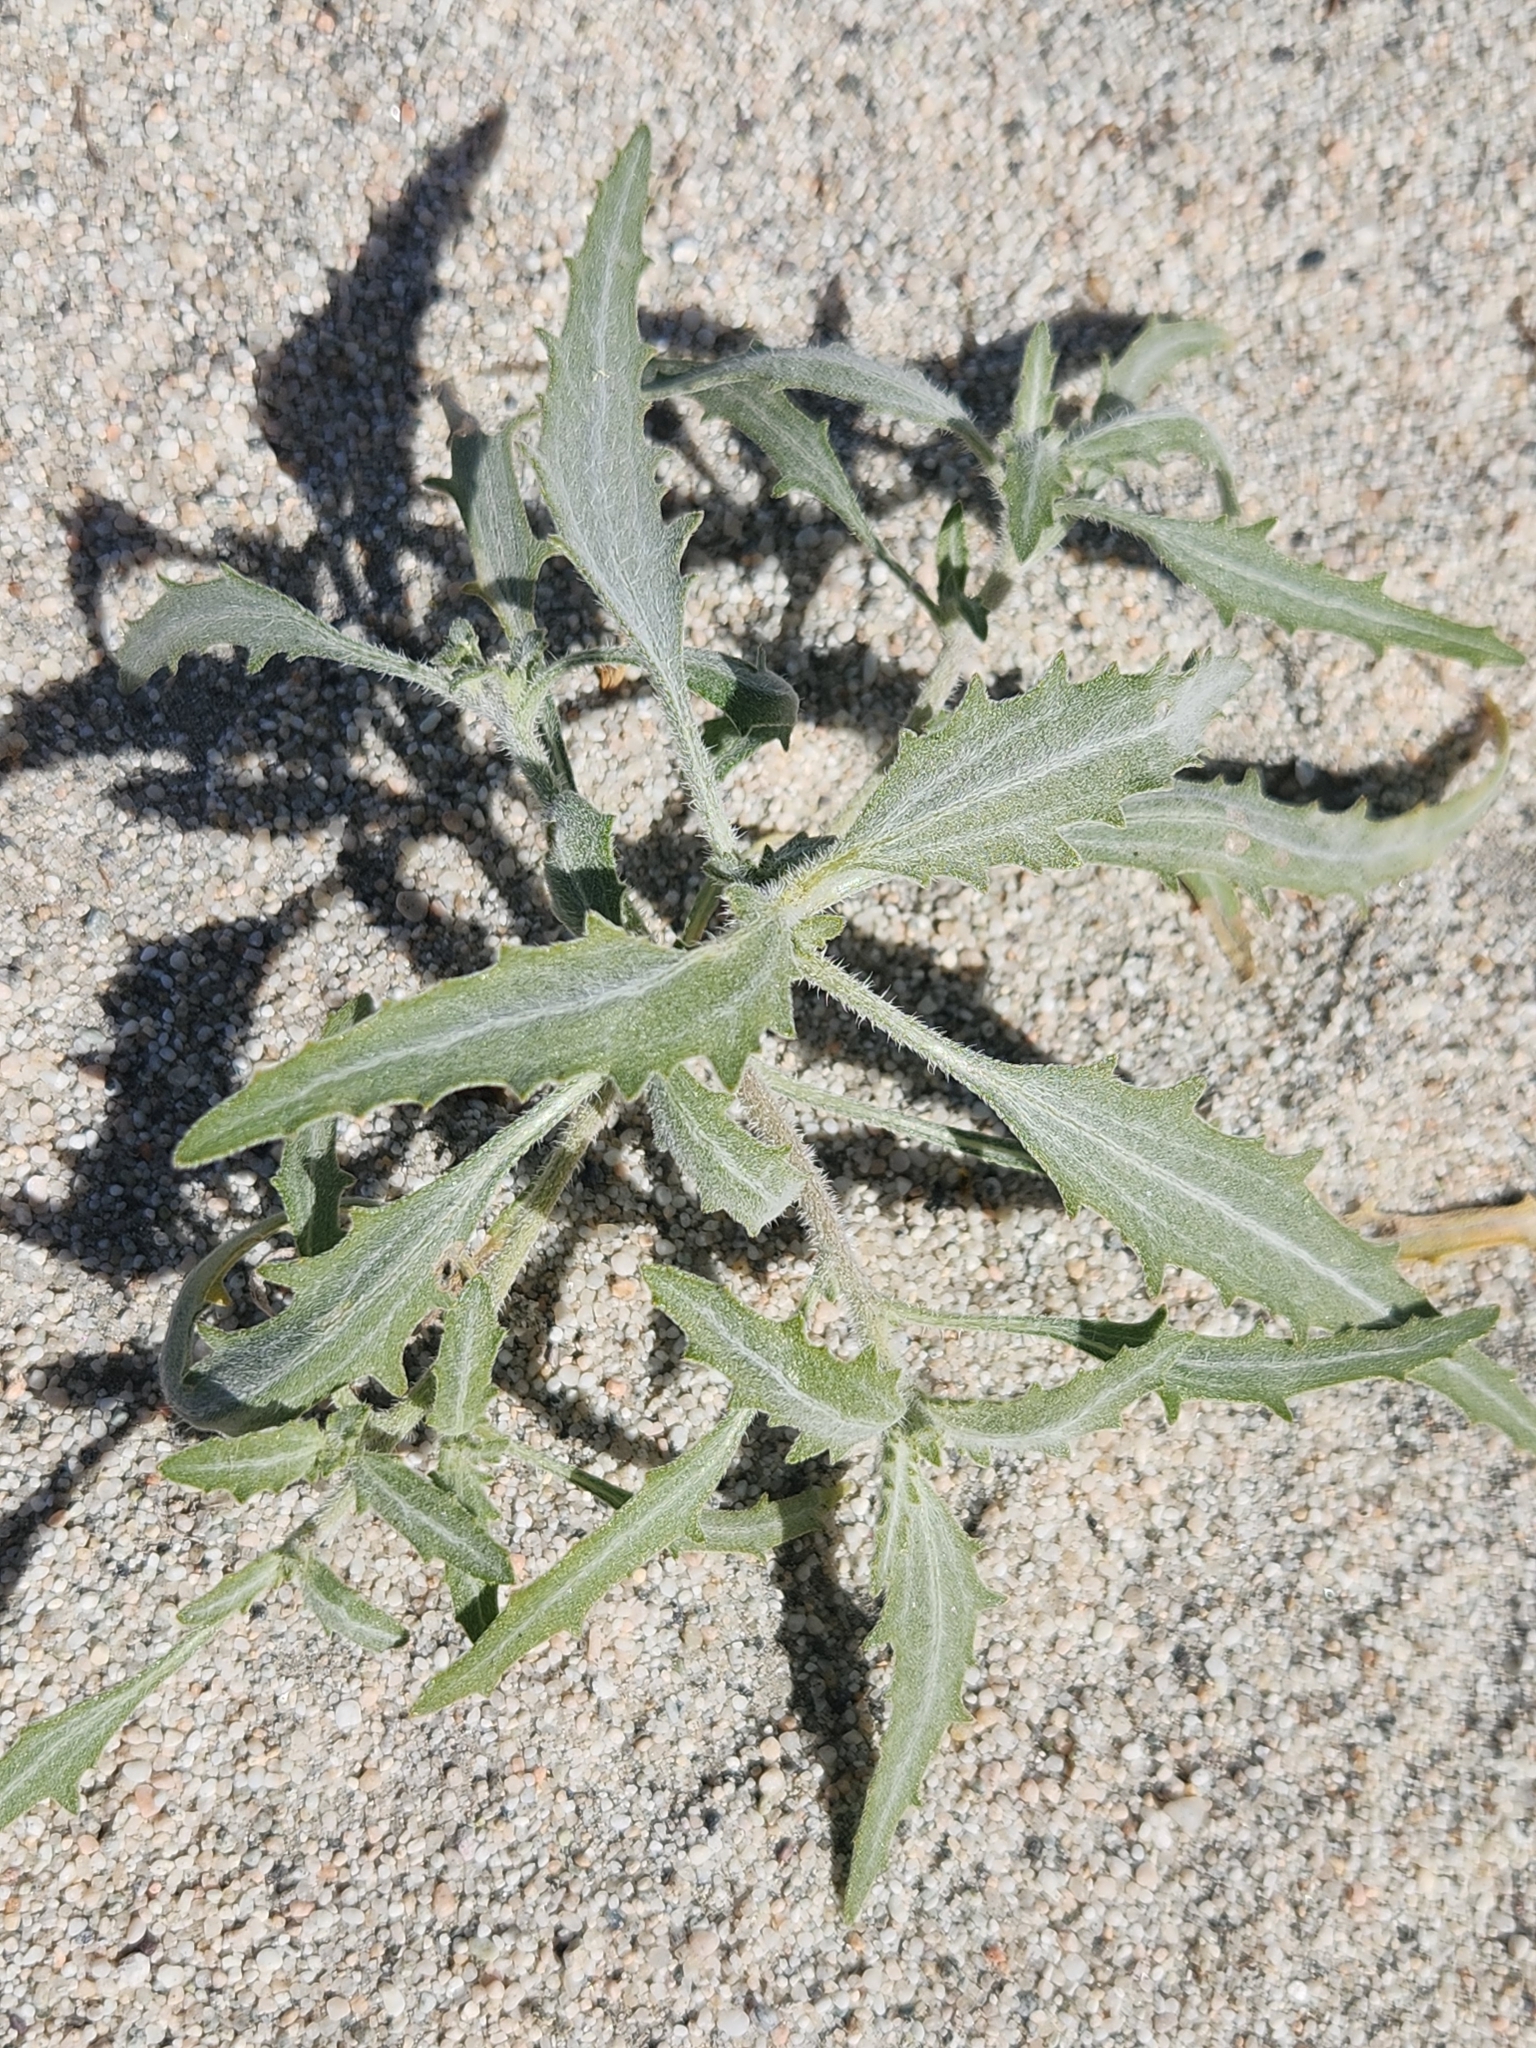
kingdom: Plantae
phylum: Tracheophyta
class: Magnoliopsida
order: Asterales
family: Asteraceae
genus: Dicoria
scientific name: Dicoria canescens
